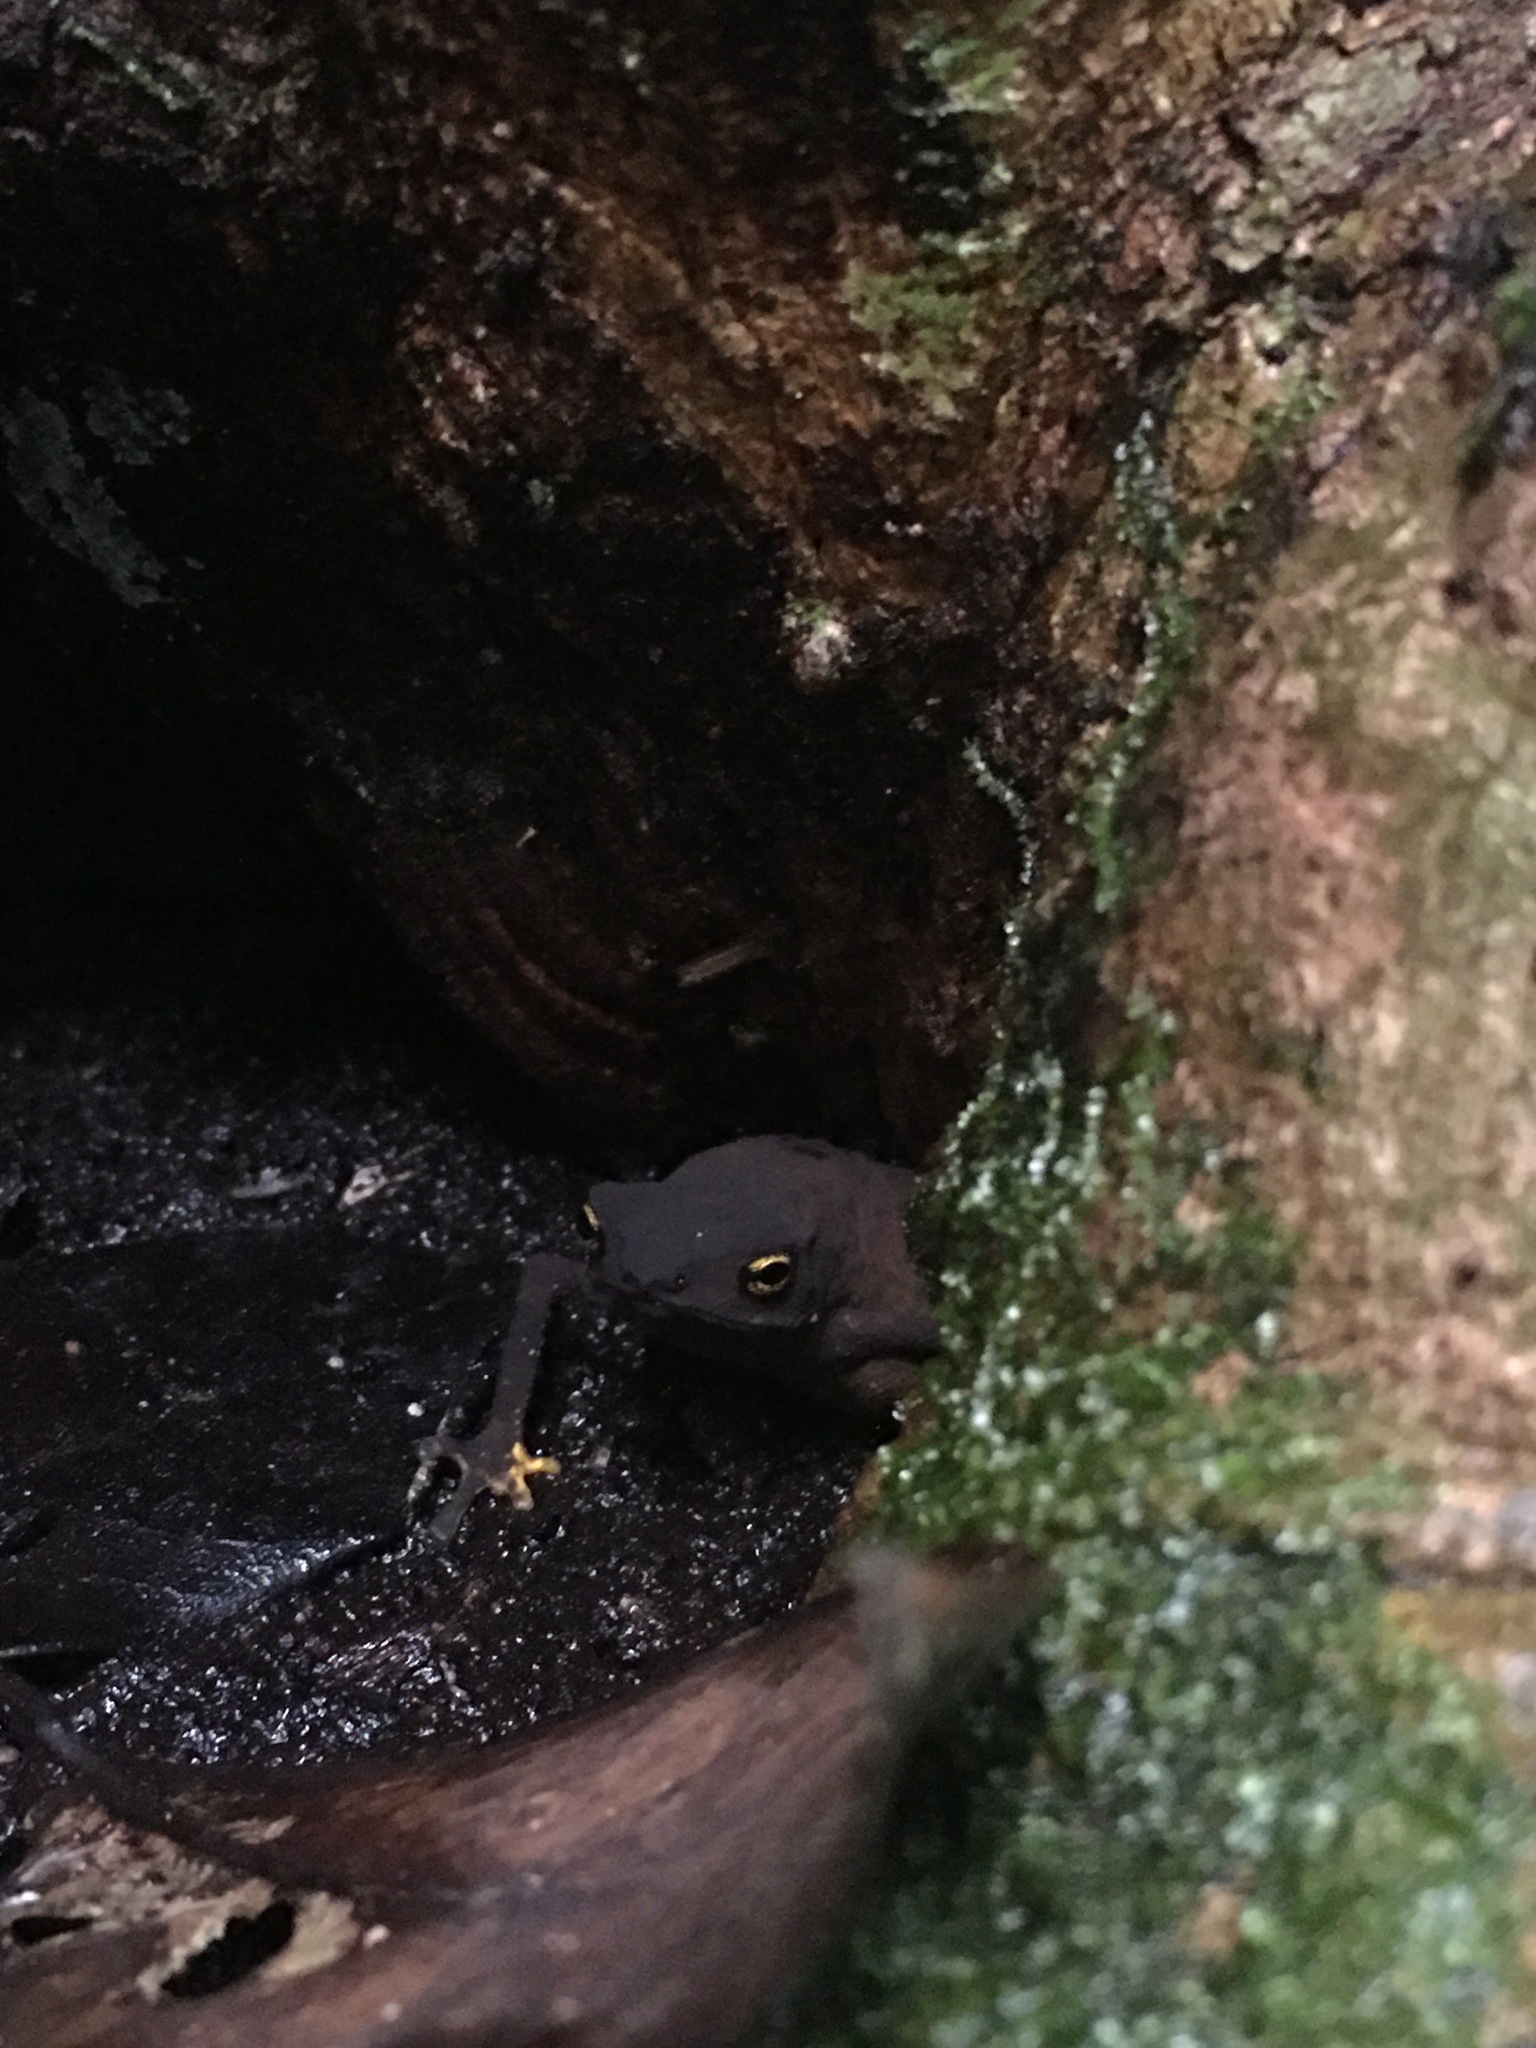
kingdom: Animalia
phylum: Chordata
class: Amphibia
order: Anura
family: Bufonidae
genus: Frostius
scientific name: Frostius pernambucensis
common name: Frost’s toad
